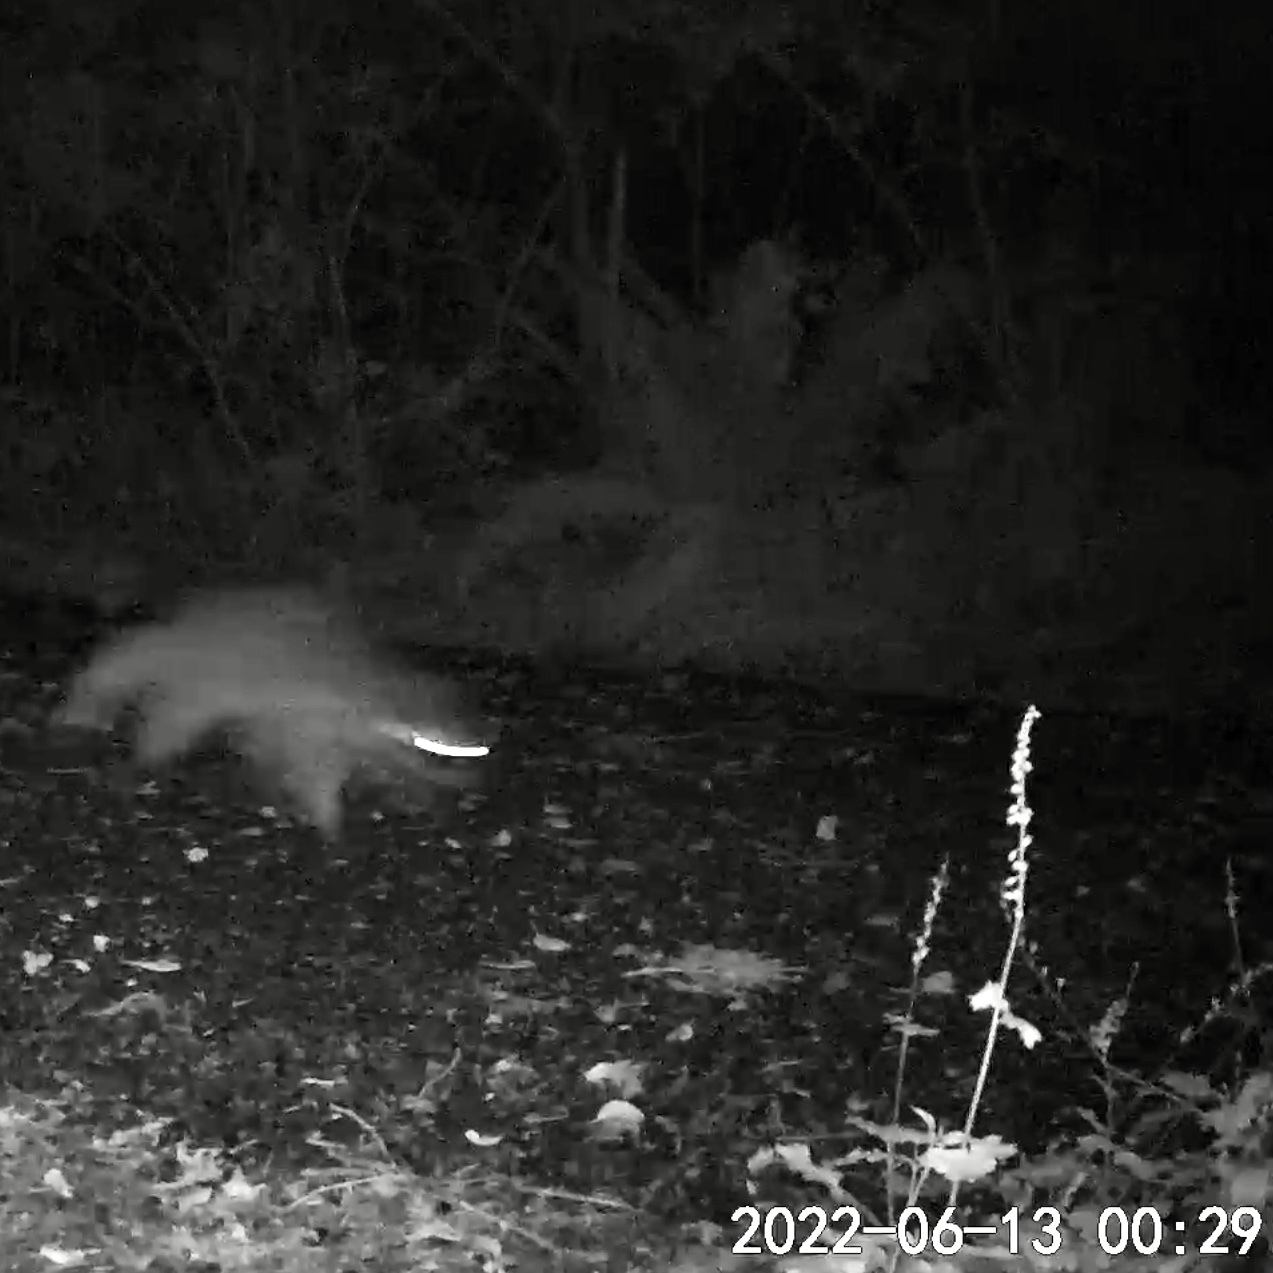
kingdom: Animalia
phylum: Chordata
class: Mammalia
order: Carnivora
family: Procyonidae
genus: Procyon
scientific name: Procyon lotor
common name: Raccoon
